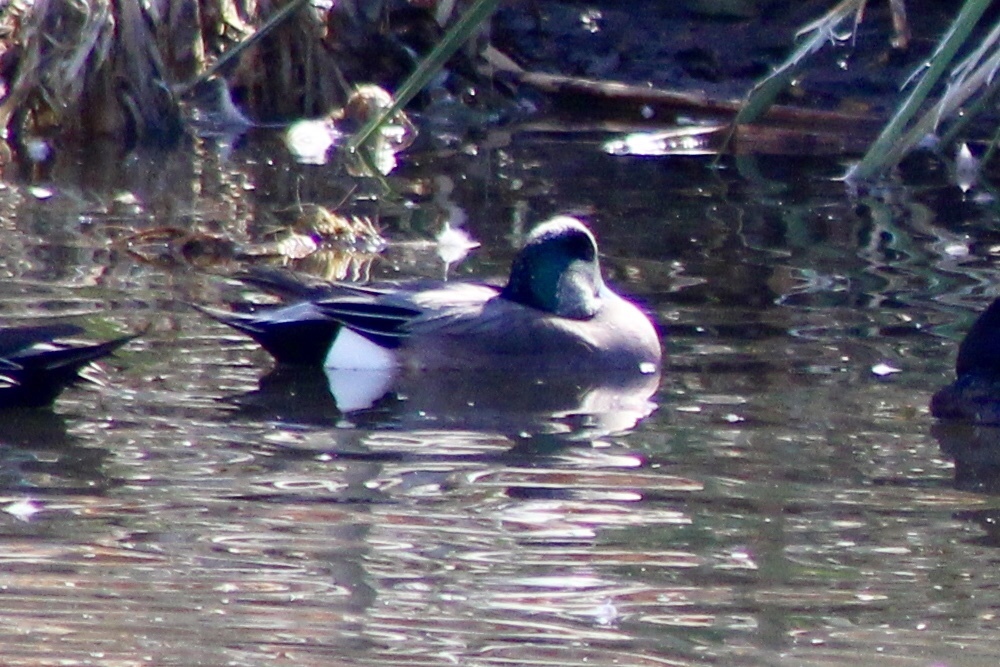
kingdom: Animalia
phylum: Chordata
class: Aves
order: Anseriformes
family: Anatidae
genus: Mareca
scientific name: Mareca americana
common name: American wigeon
